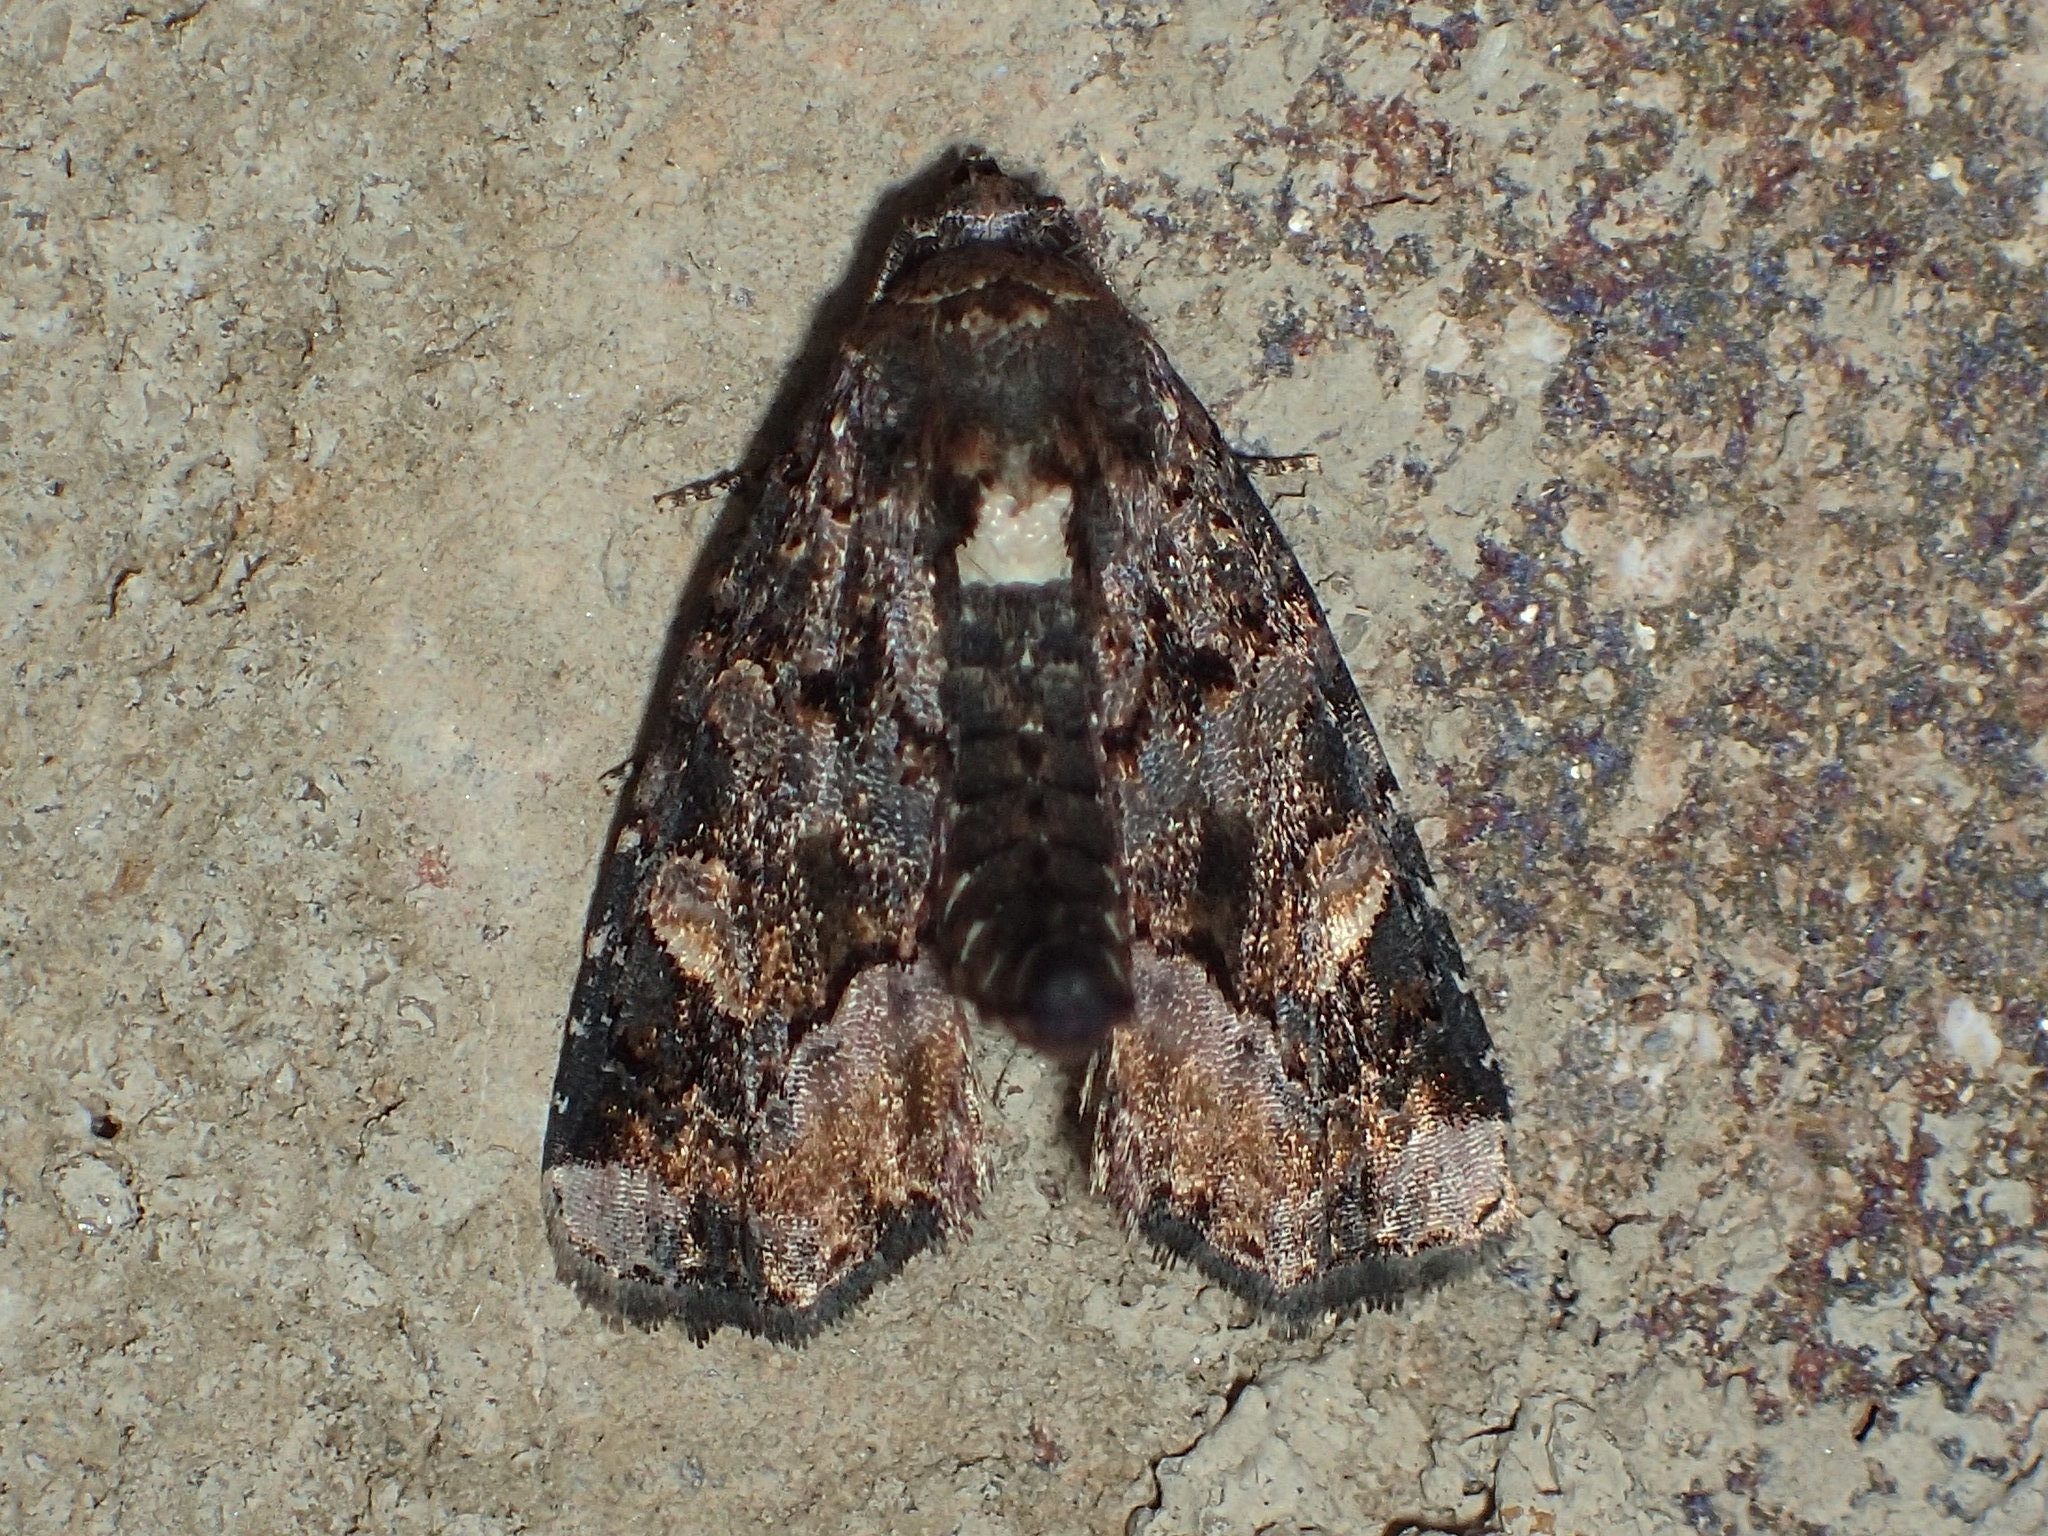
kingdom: Animalia
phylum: Arthropoda
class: Insecta
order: Lepidoptera
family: Noctuidae
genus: Homophoberia
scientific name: Homophoberia apicosa
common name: Black wedge-spot
